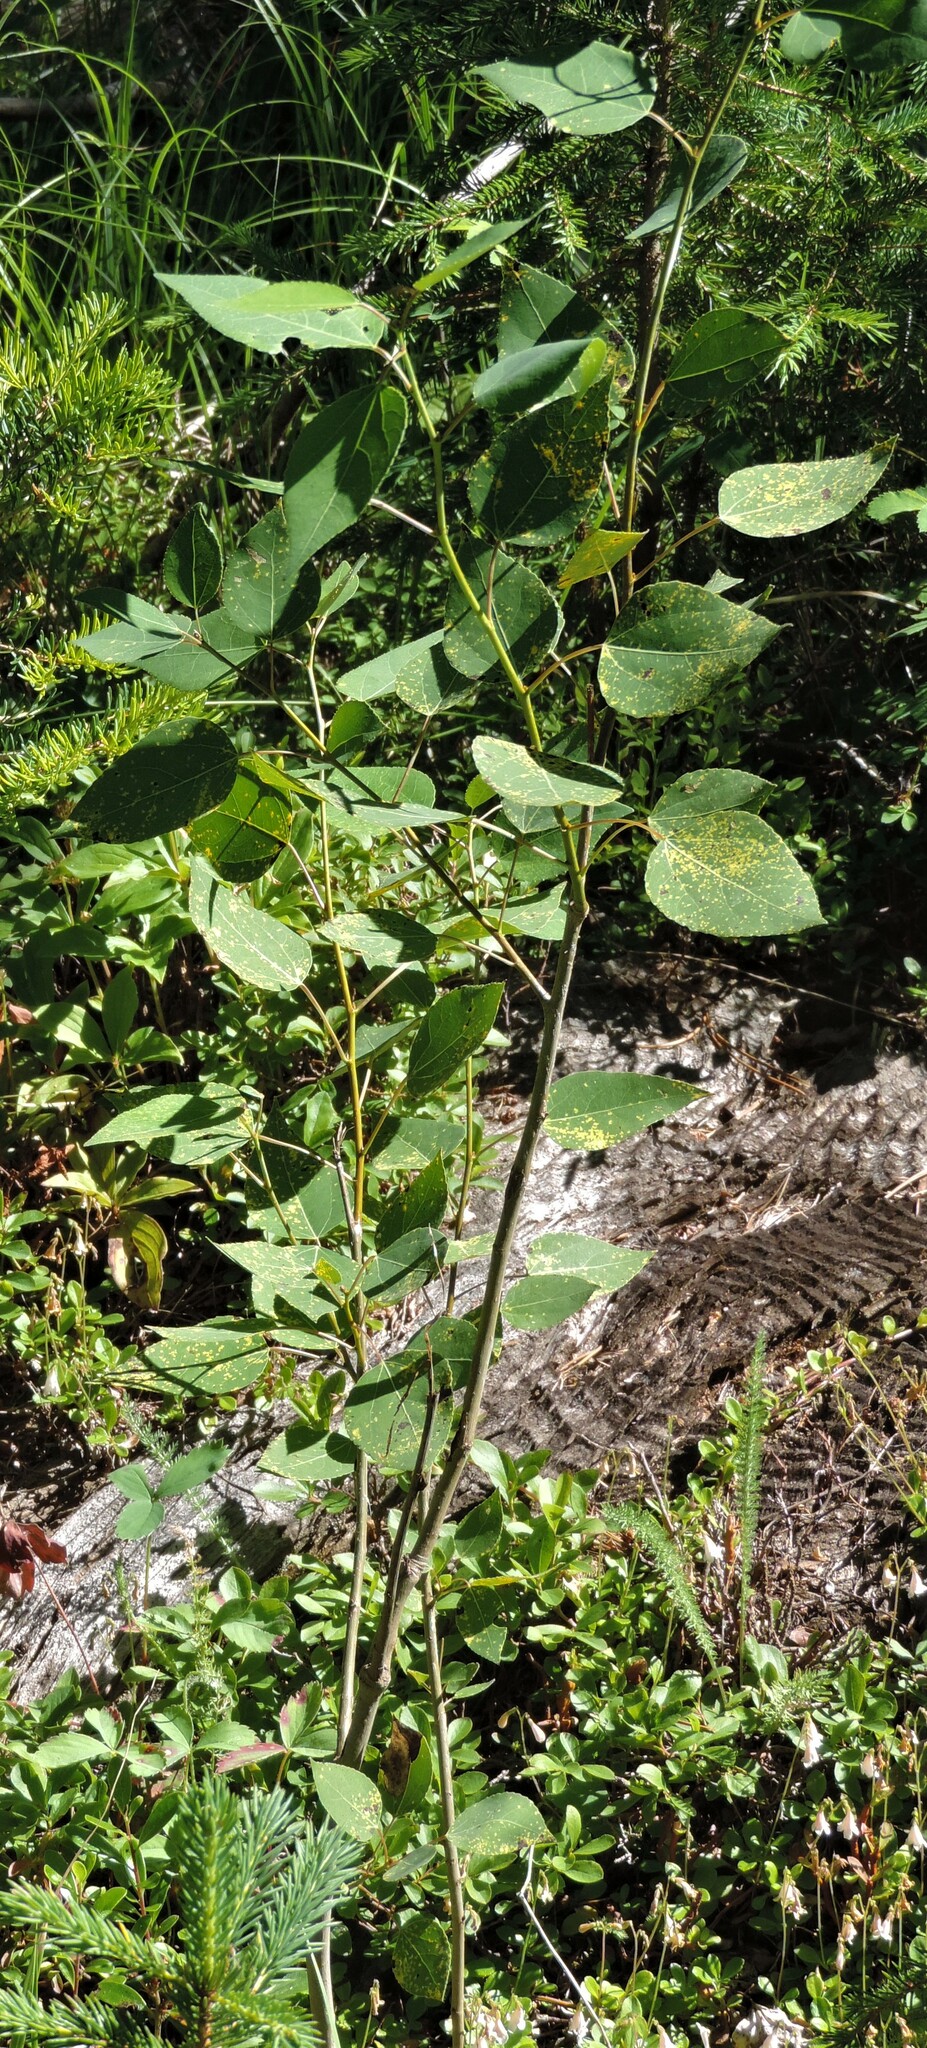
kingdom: Plantae
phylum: Tracheophyta
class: Magnoliopsida
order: Malpighiales
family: Salicaceae
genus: Populus
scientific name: Populus tremuloides
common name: Quaking aspen
